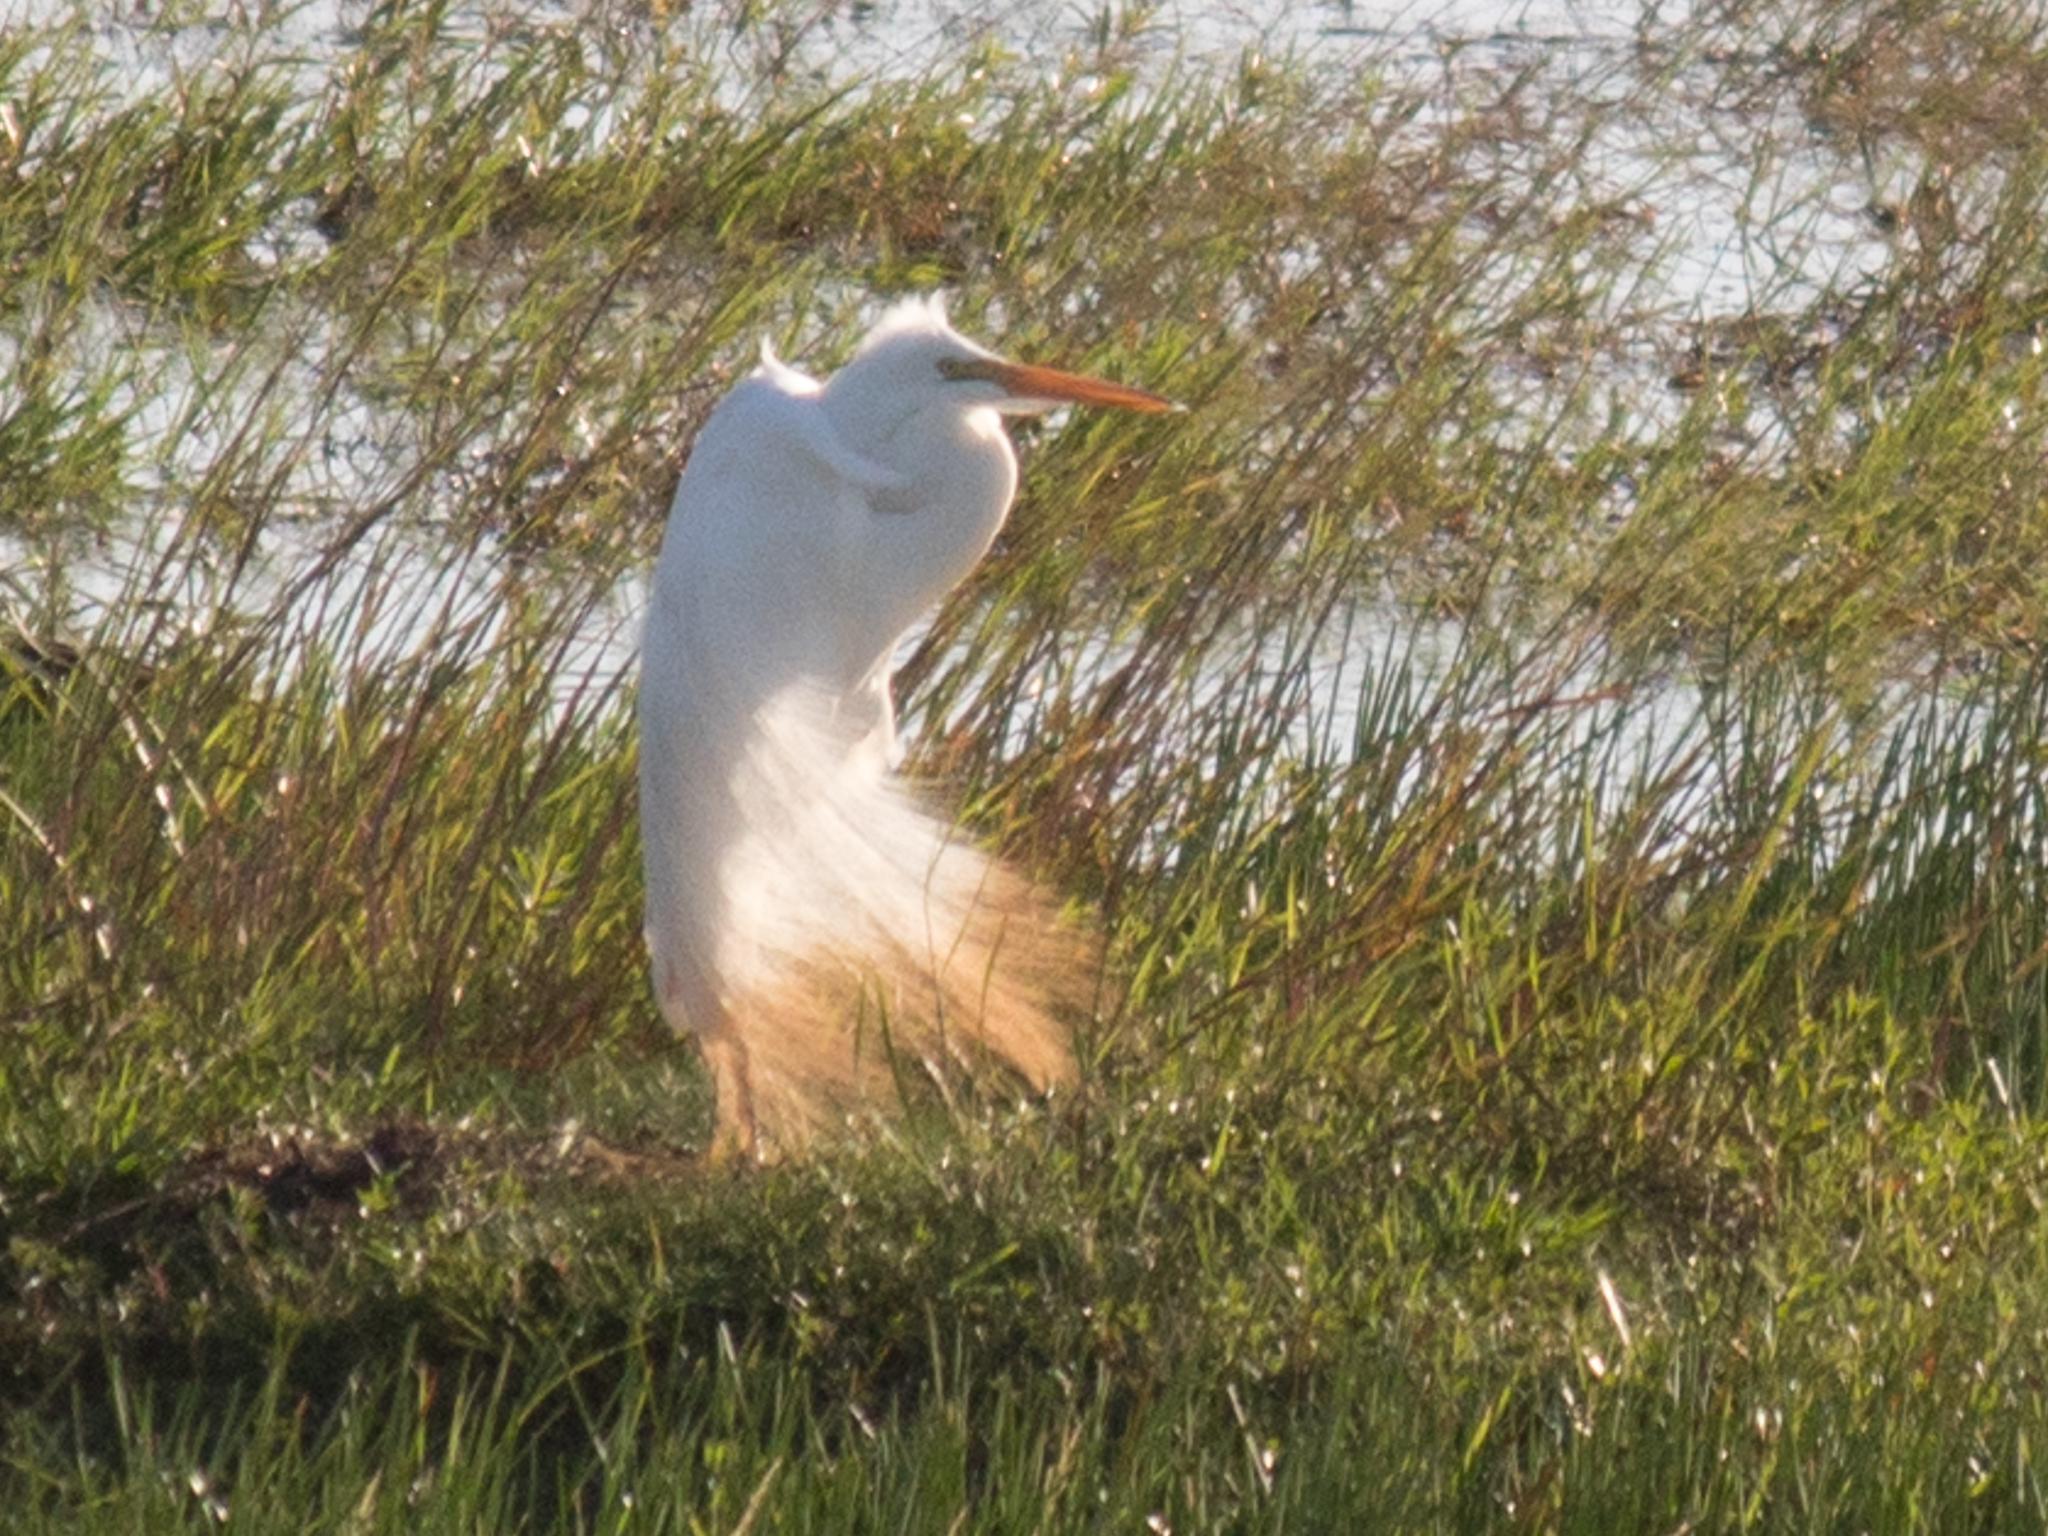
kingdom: Animalia
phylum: Chordata
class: Aves
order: Pelecaniformes
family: Ardeidae
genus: Ardea
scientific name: Ardea alba
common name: Great egret
